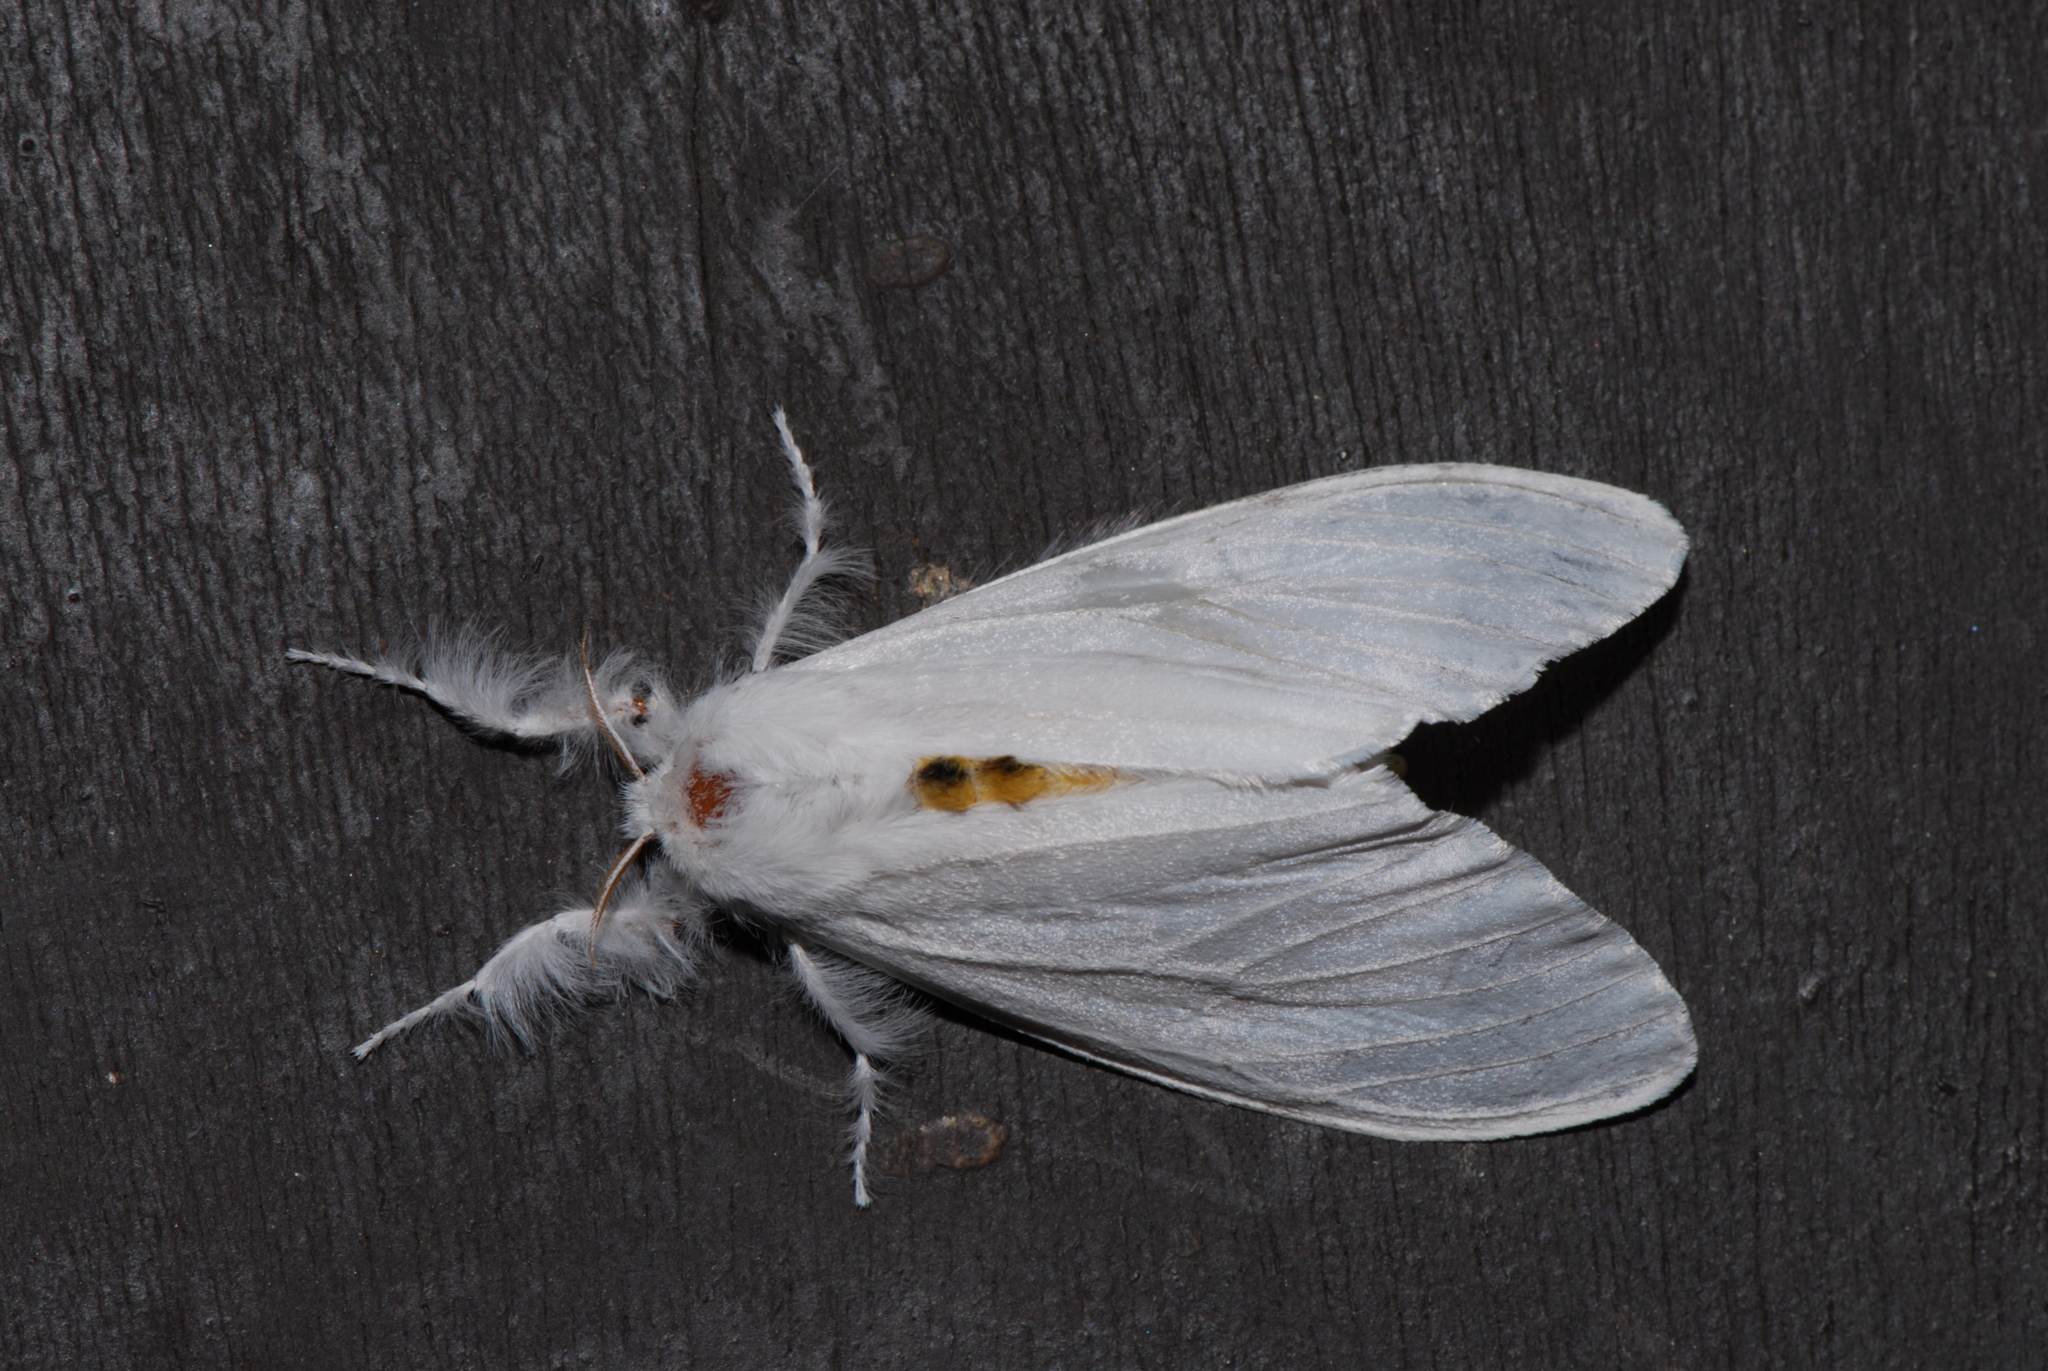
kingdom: Animalia
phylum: Arthropoda
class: Insecta
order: Lepidoptera
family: Erebidae
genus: Sphrageidus
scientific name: Sphrageidus similis
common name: Yellow-tail
